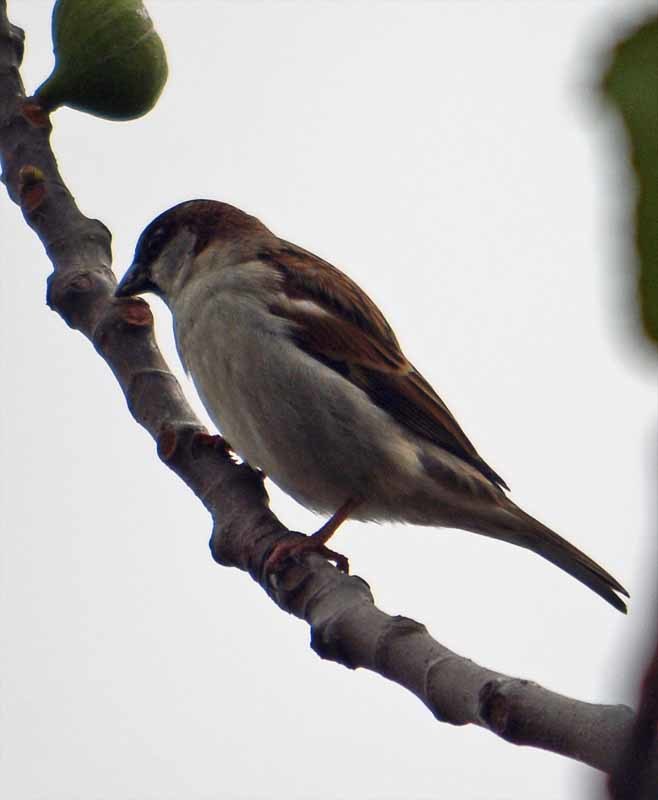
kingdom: Animalia
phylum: Chordata
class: Aves
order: Passeriformes
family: Passeridae
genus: Passer
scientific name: Passer domesticus
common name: House sparrow
